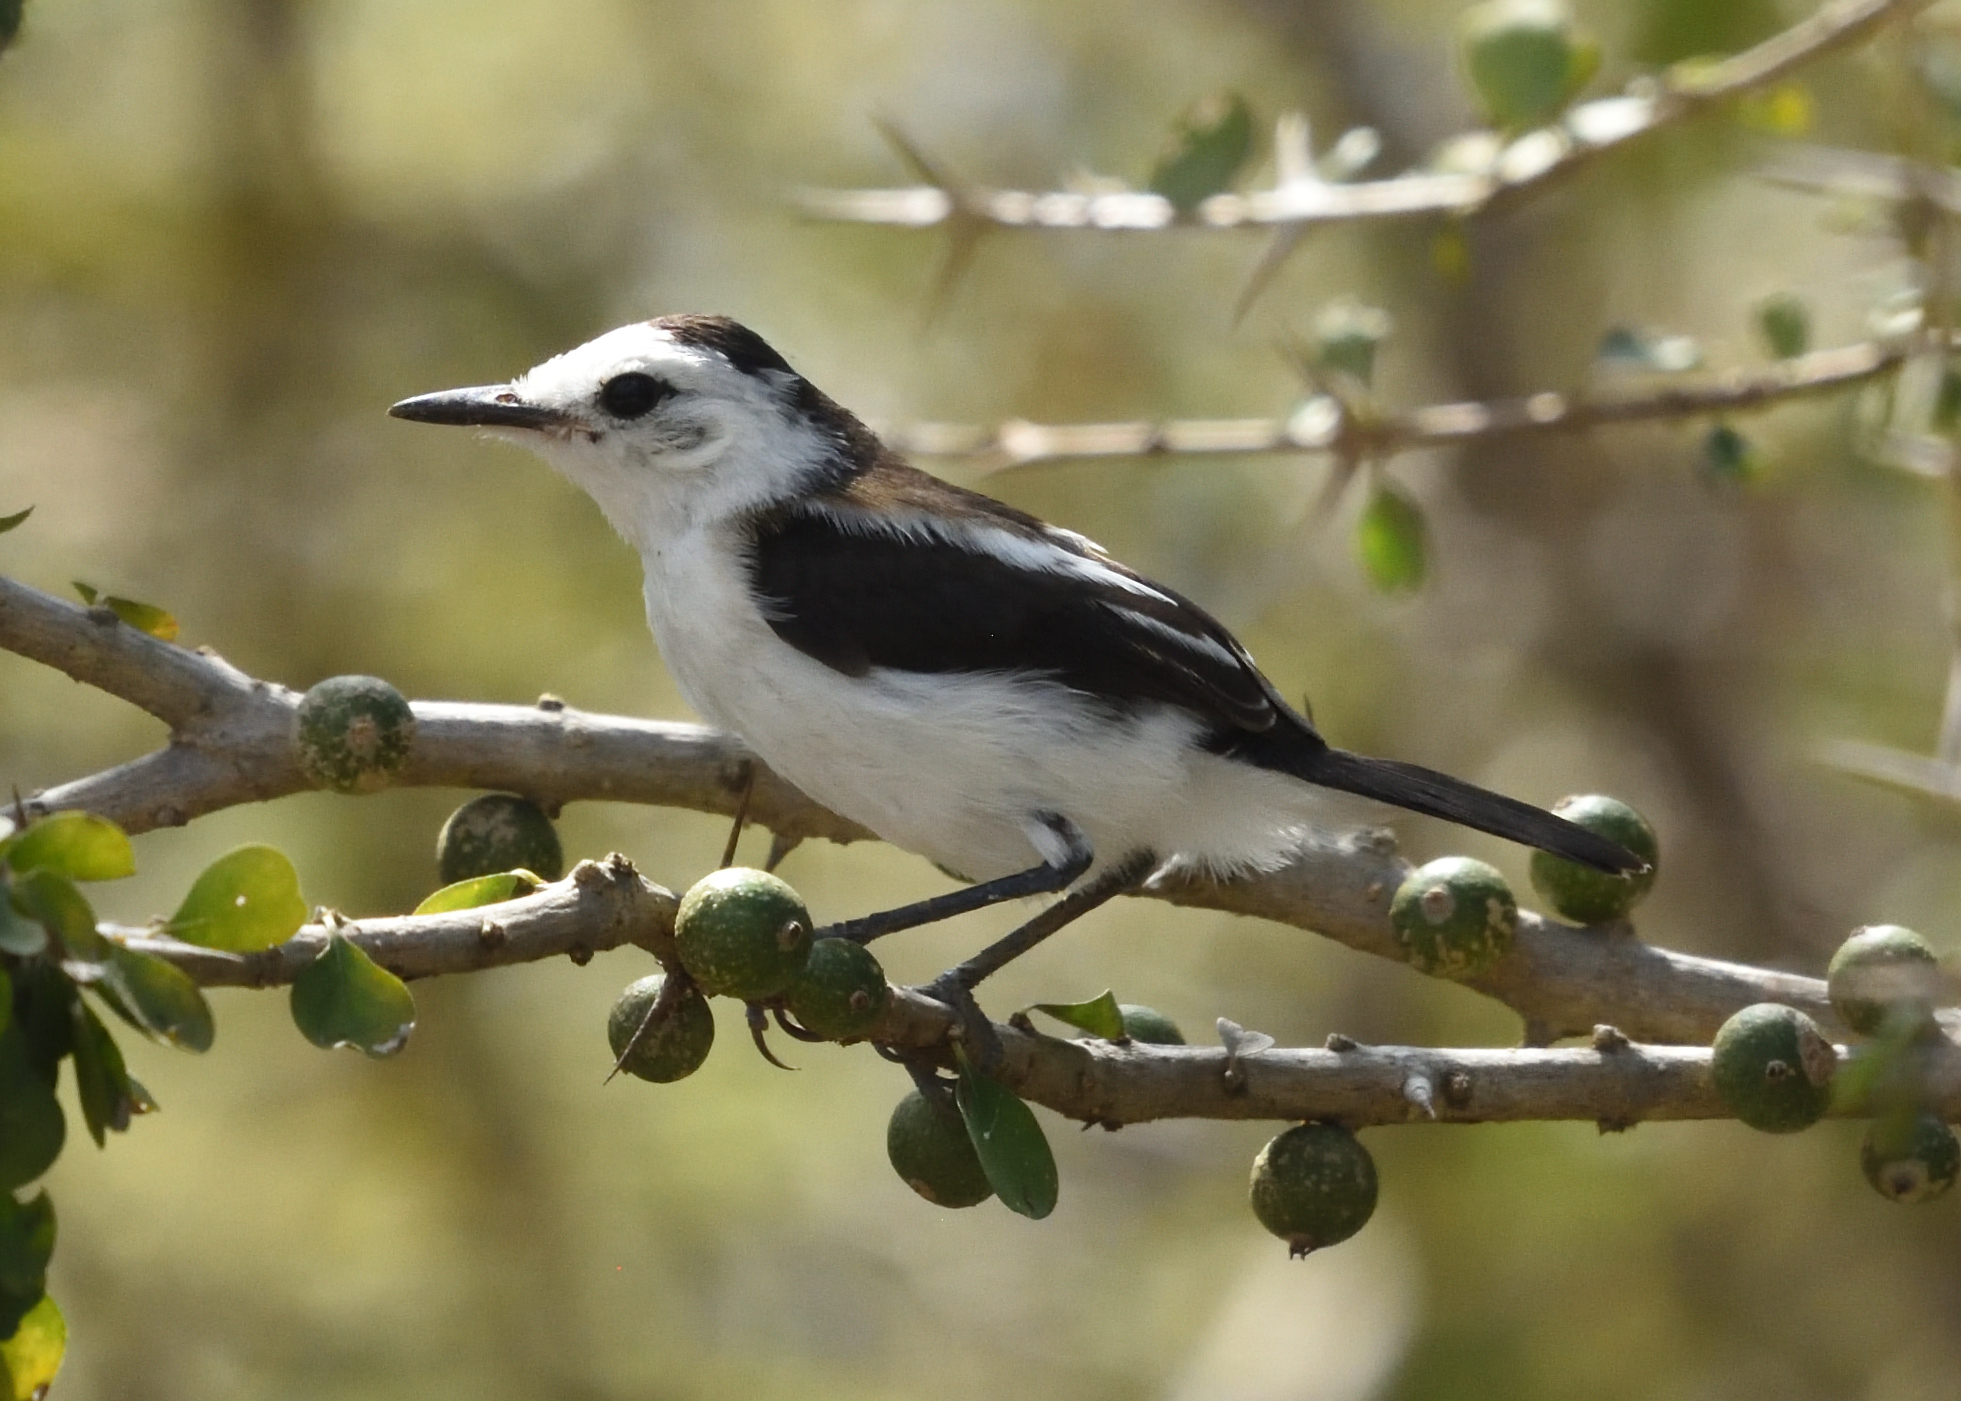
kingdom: Animalia
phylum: Chordata
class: Aves
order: Passeriformes
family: Tyrannidae
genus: Fluvicola
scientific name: Fluvicola pica
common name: Pied water-tyrant
